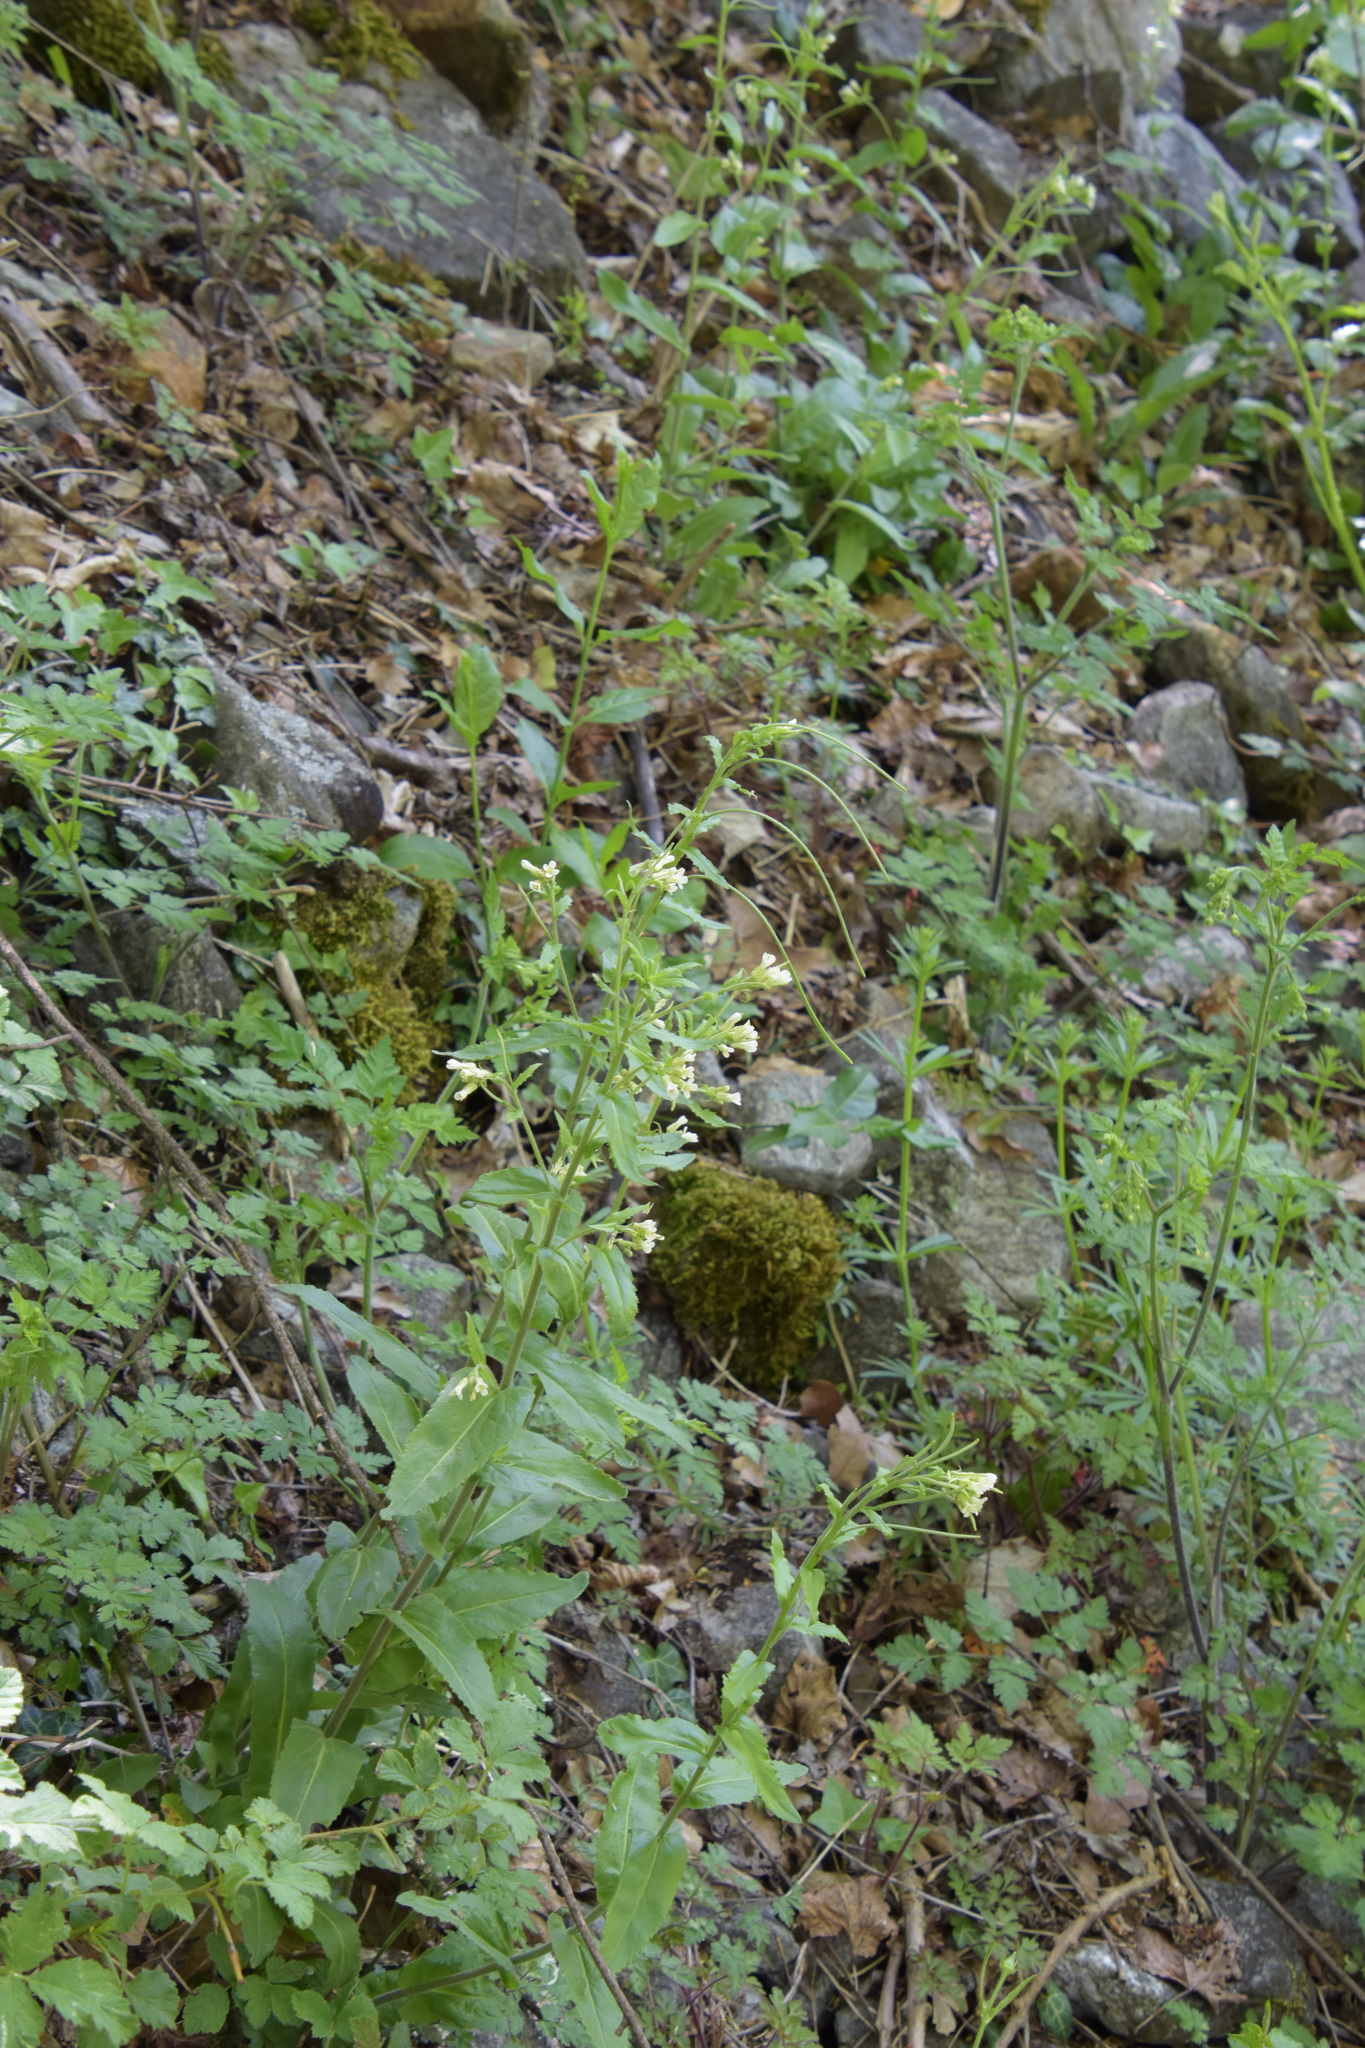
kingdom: Plantae
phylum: Tracheophyta
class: Magnoliopsida
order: Brassicales
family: Brassicaceae
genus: Pseudoturritis
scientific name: Pseudoturritis turrita
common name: Tower cress
